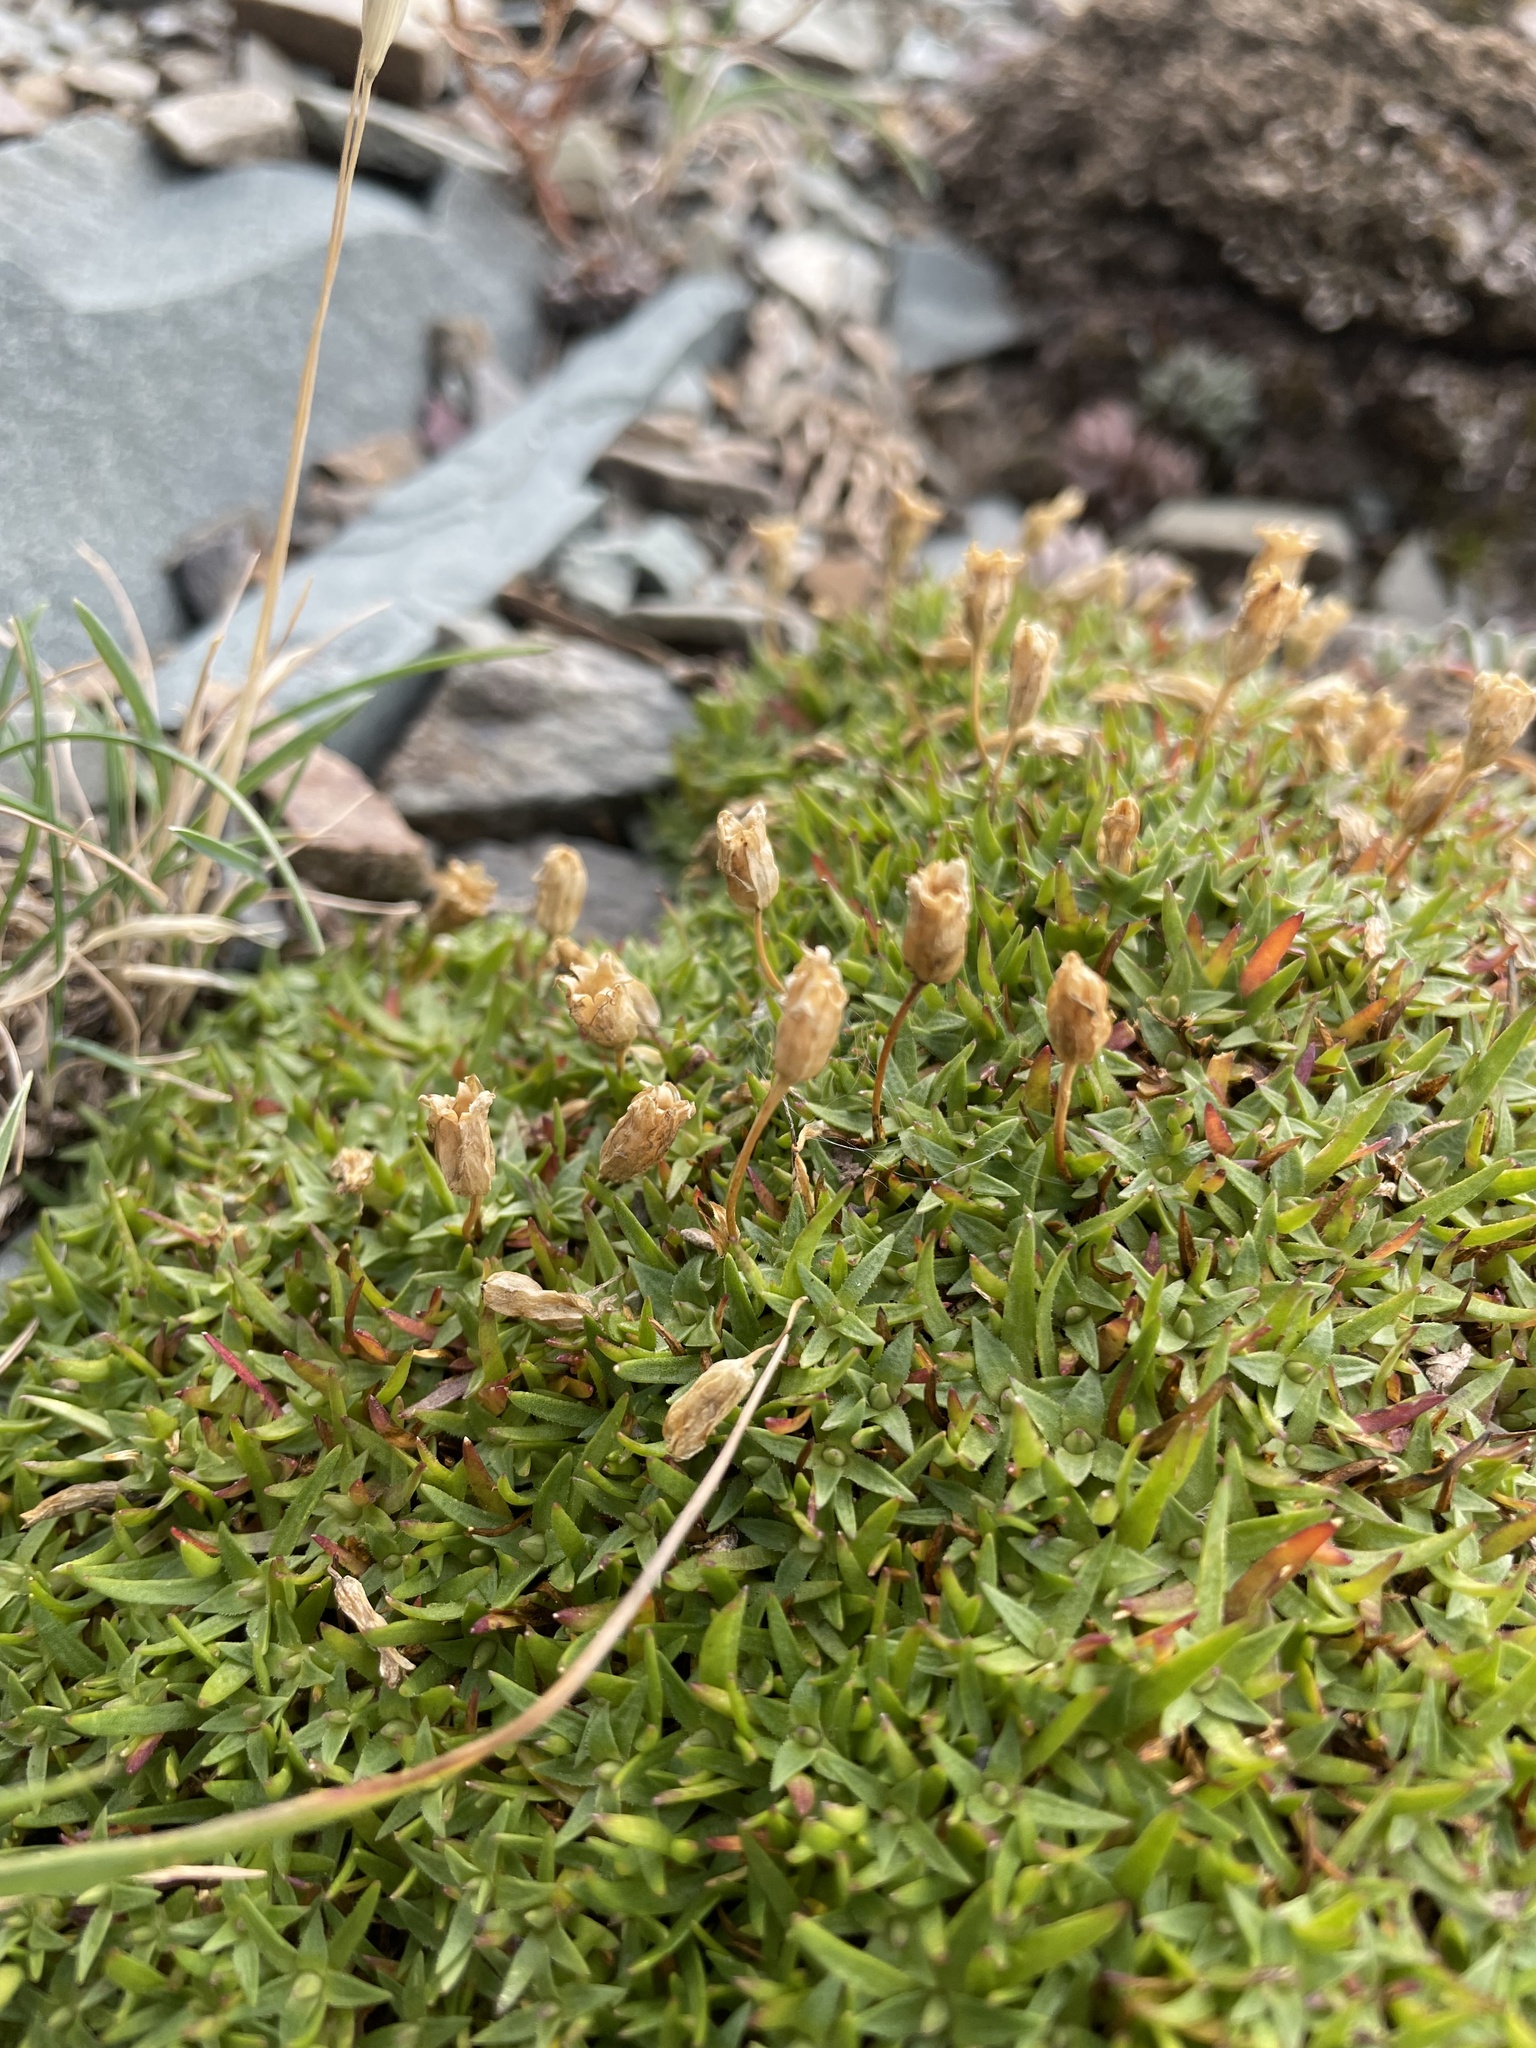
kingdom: Plantae
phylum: Tracheophyta
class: Magnoliopsida
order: Caryophyllales
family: Caryophyllaceae
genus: Silene
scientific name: Silene acaulis
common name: Moss campion
